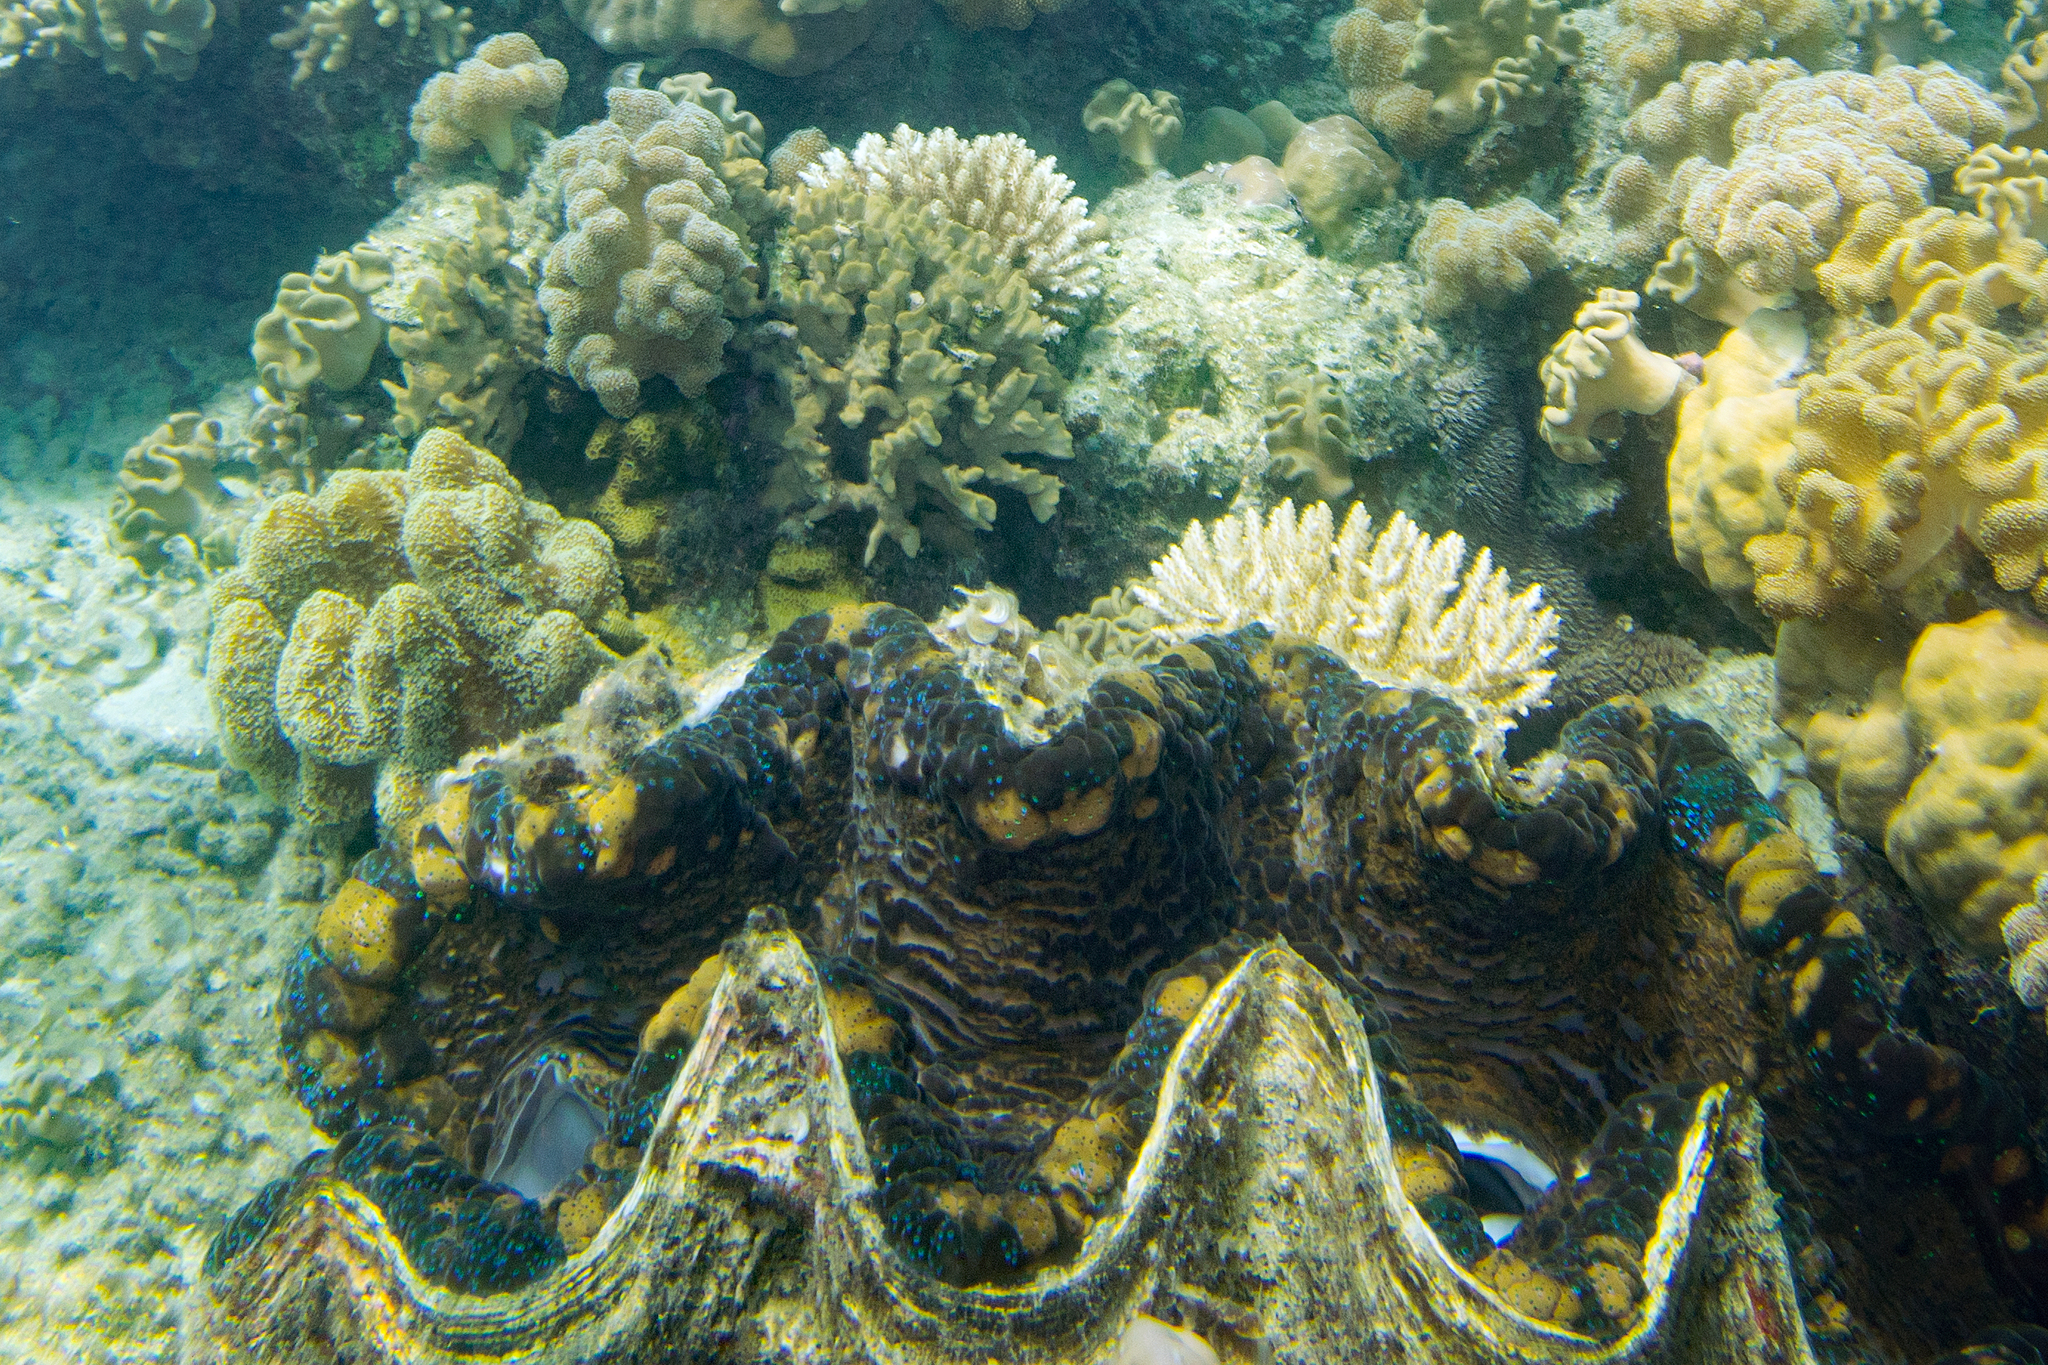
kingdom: Animalia
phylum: Mollusca
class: Bivalvia
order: Cardiida
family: Cardiidae
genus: Tridacna
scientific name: Tridacna gigas
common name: Giant clam
